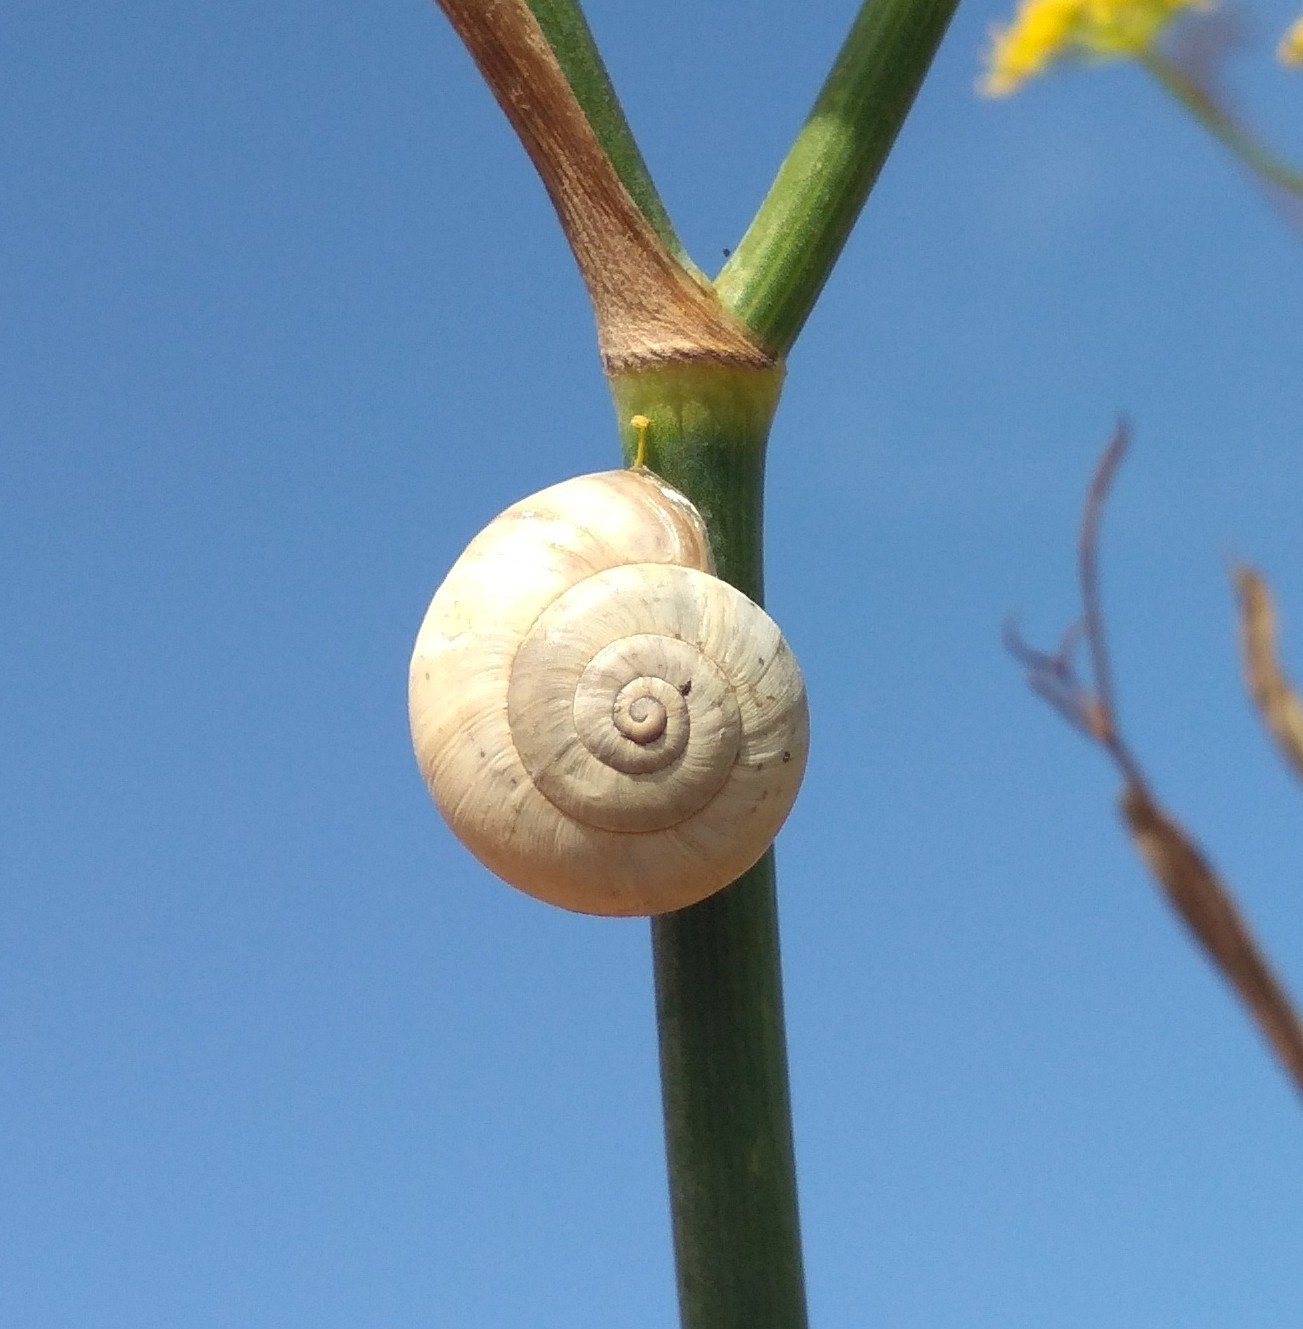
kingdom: Animalia
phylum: Mollusca
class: Gastropoda
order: Stylommatophora
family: Helicidae
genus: Theba
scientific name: Theba pisana
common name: White snail
